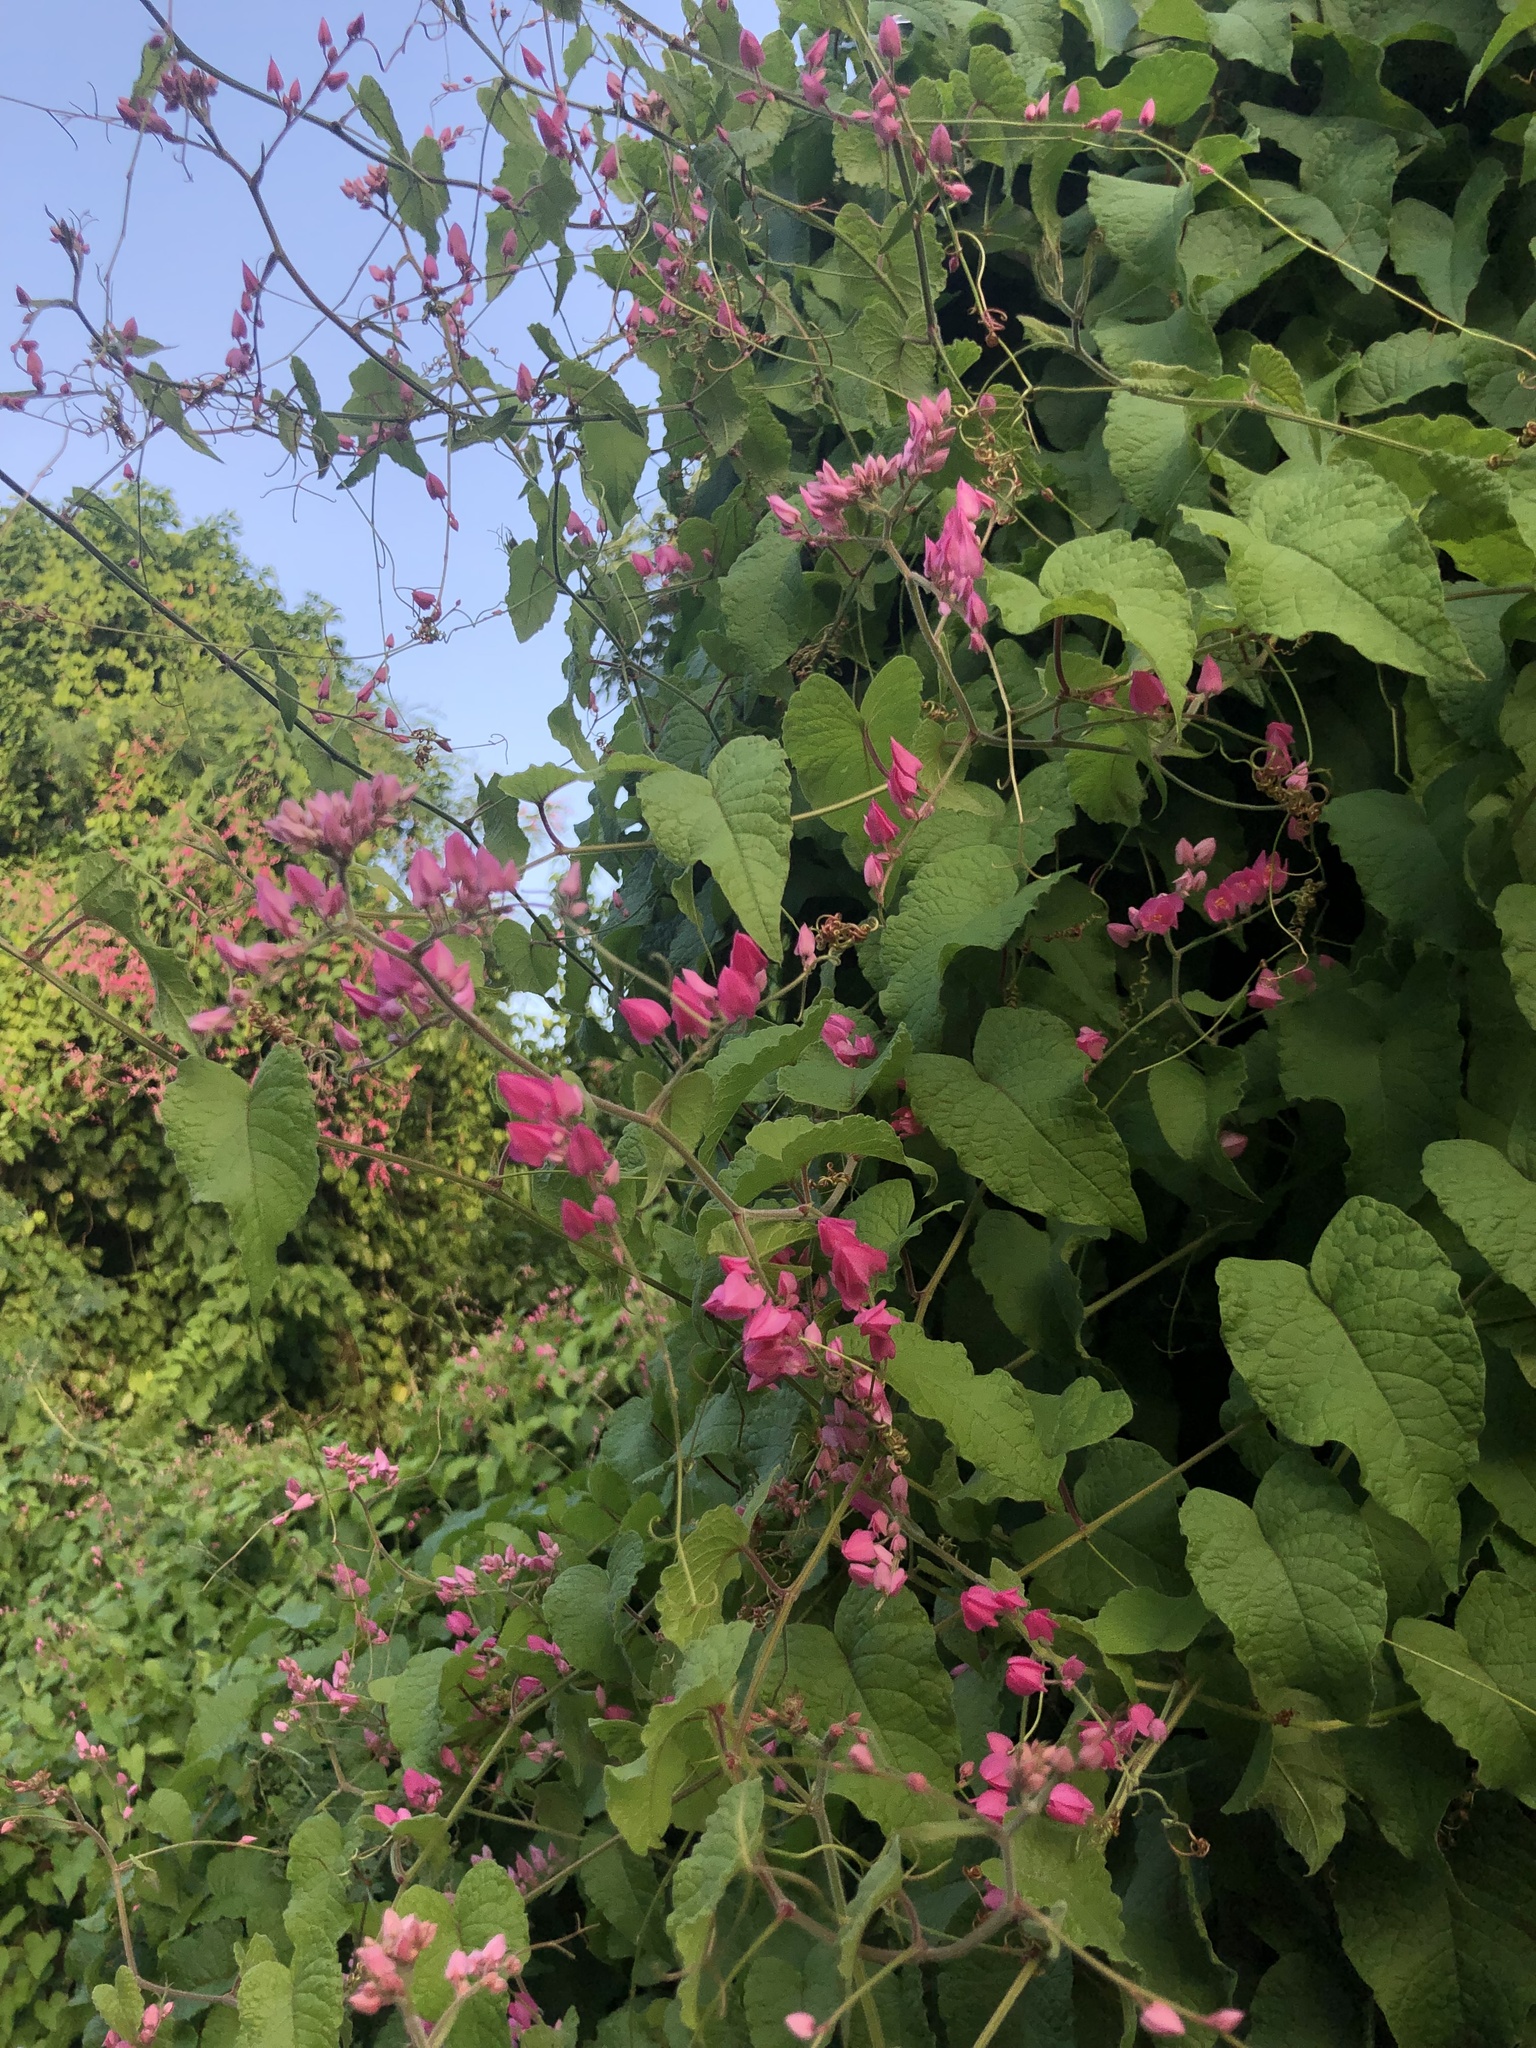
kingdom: Plantae
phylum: Tracheophyta
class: Magnoliopsida
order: Caryophyllales
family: Polygonaceae
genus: Antigonon
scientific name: Antigonon leptopus
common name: Coral vine
